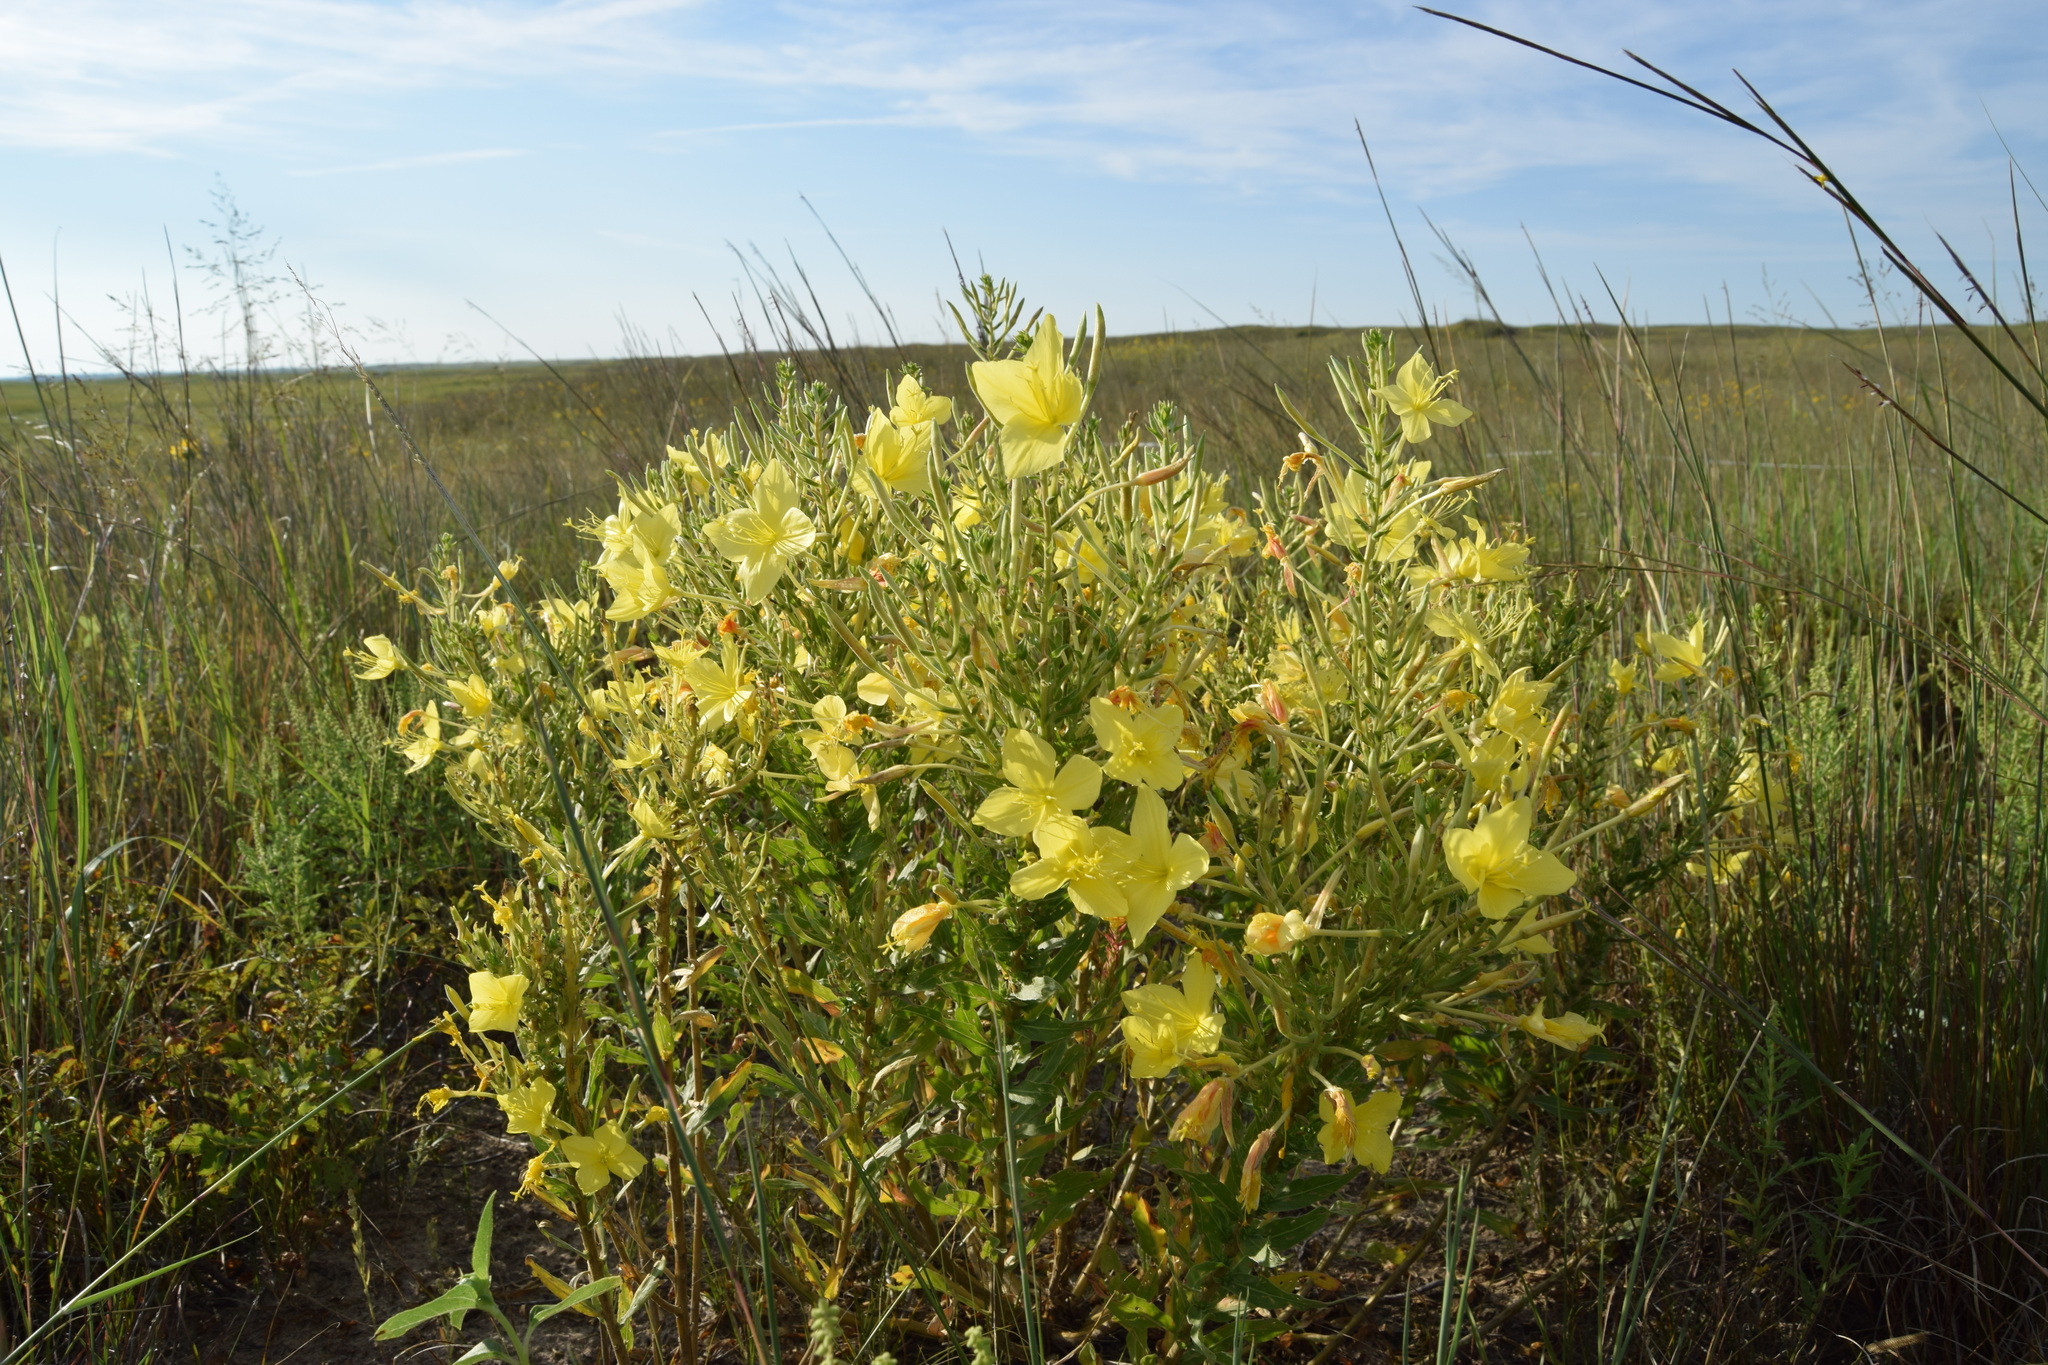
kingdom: Plantae
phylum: Tracheophyta
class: Magnoliopsida
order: Myrtales
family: Onagraceae
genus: Oenothera
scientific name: Oenothera rhombipetala
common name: Four-points evening-primrose
